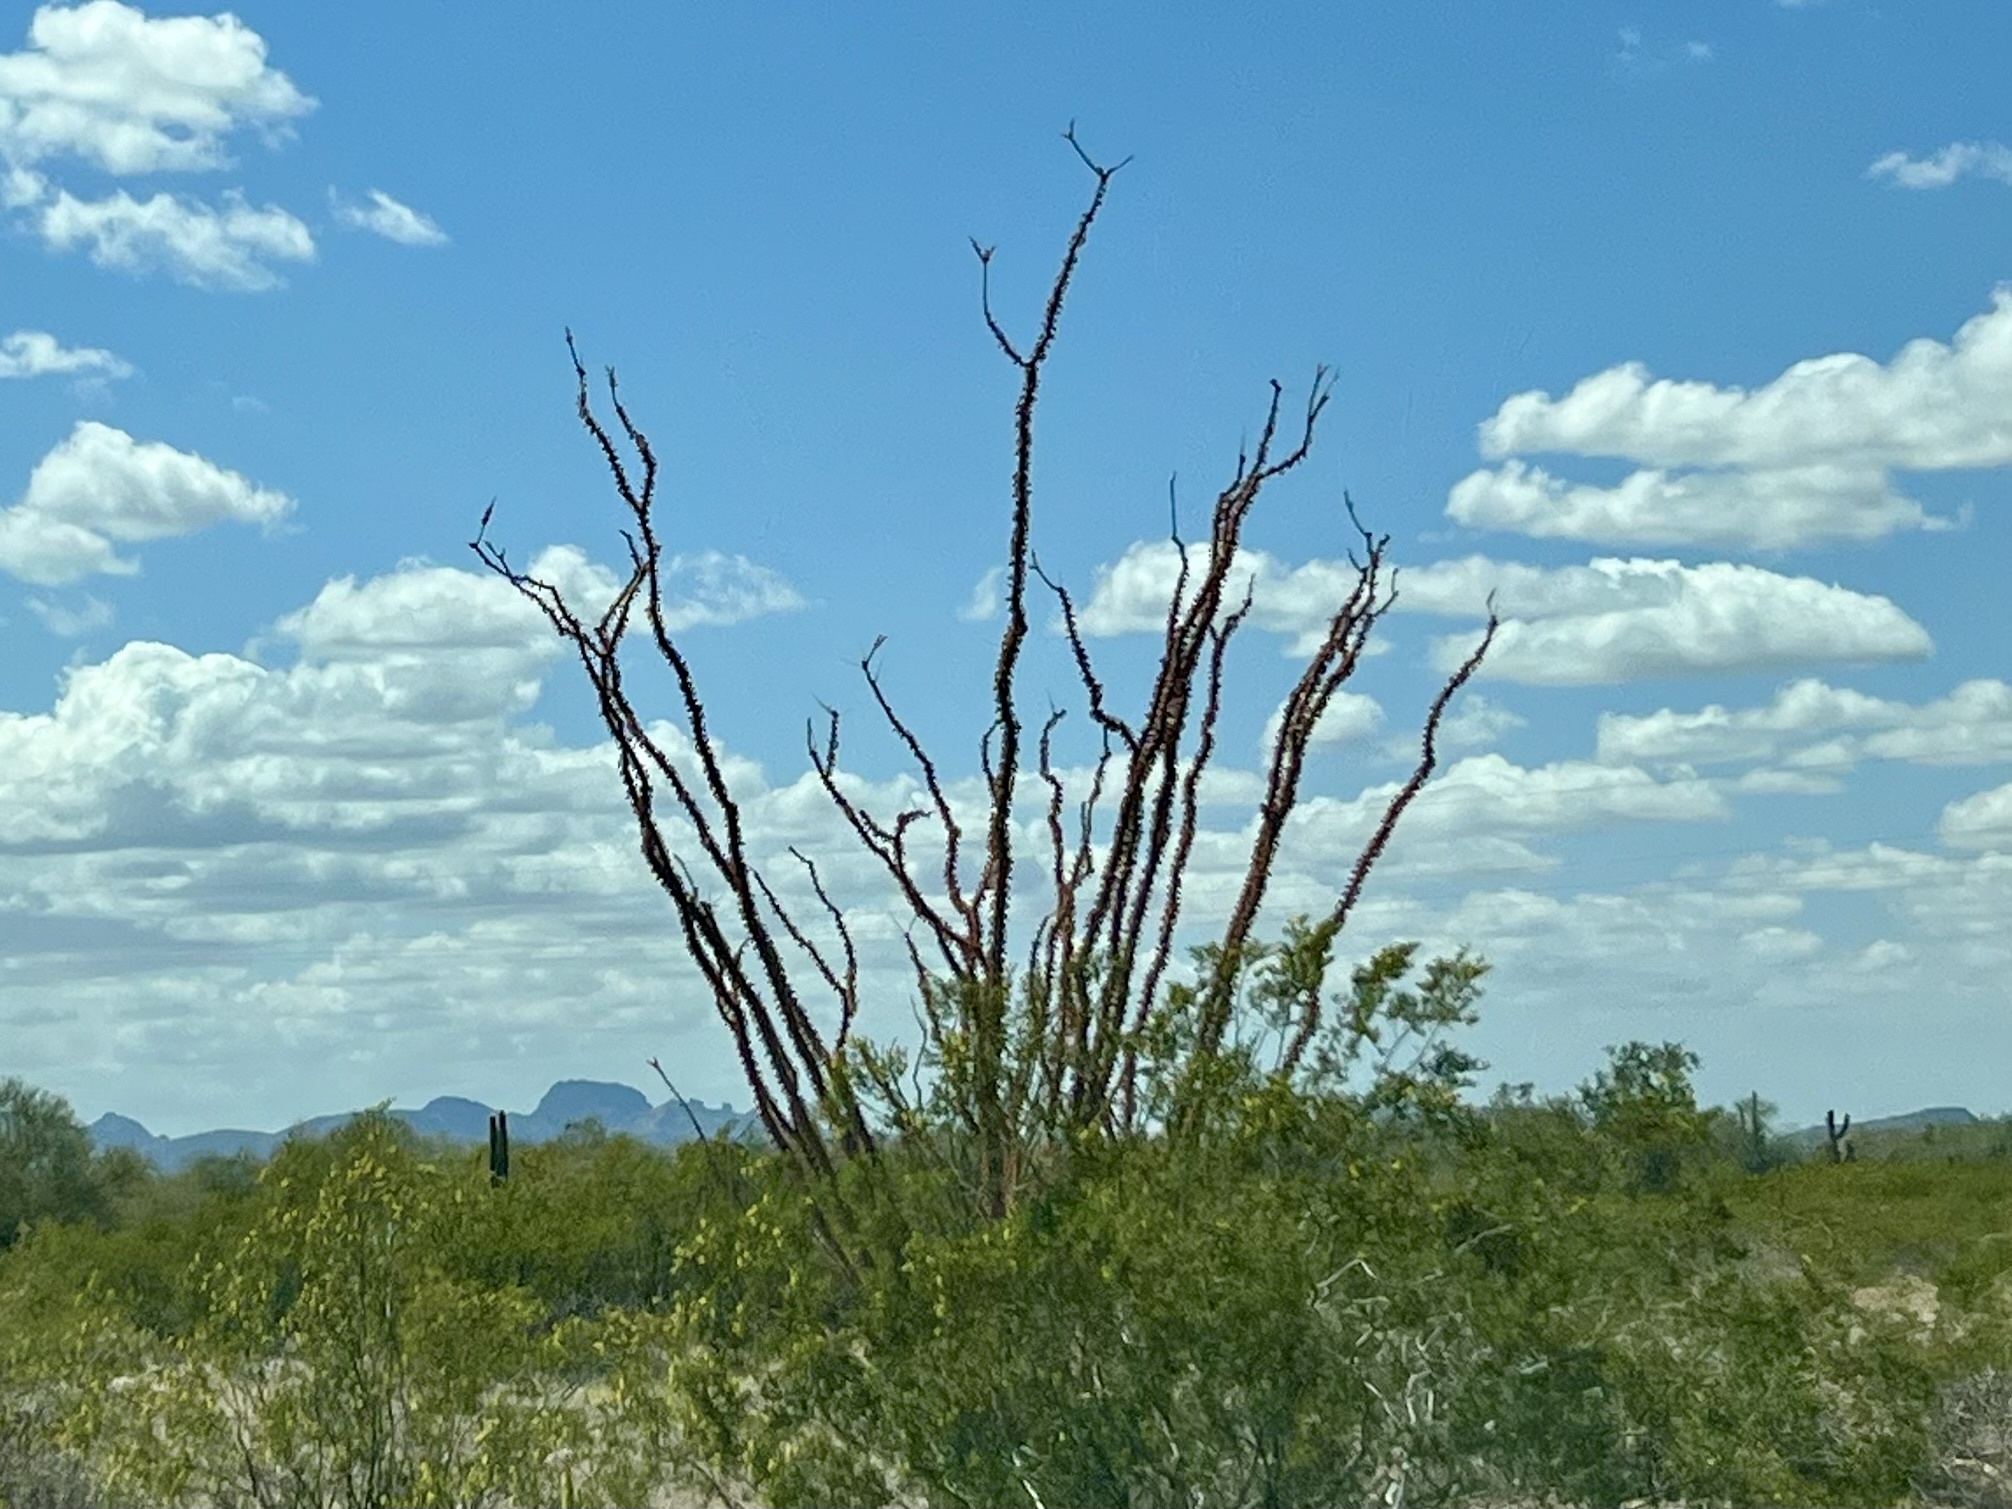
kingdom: Plantae
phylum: Tracheophyta
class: Magnoliopsida
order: Ericales
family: Fouquieriaceae
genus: Fouquieria
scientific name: Fouquieria splendens
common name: Vine-cactus
